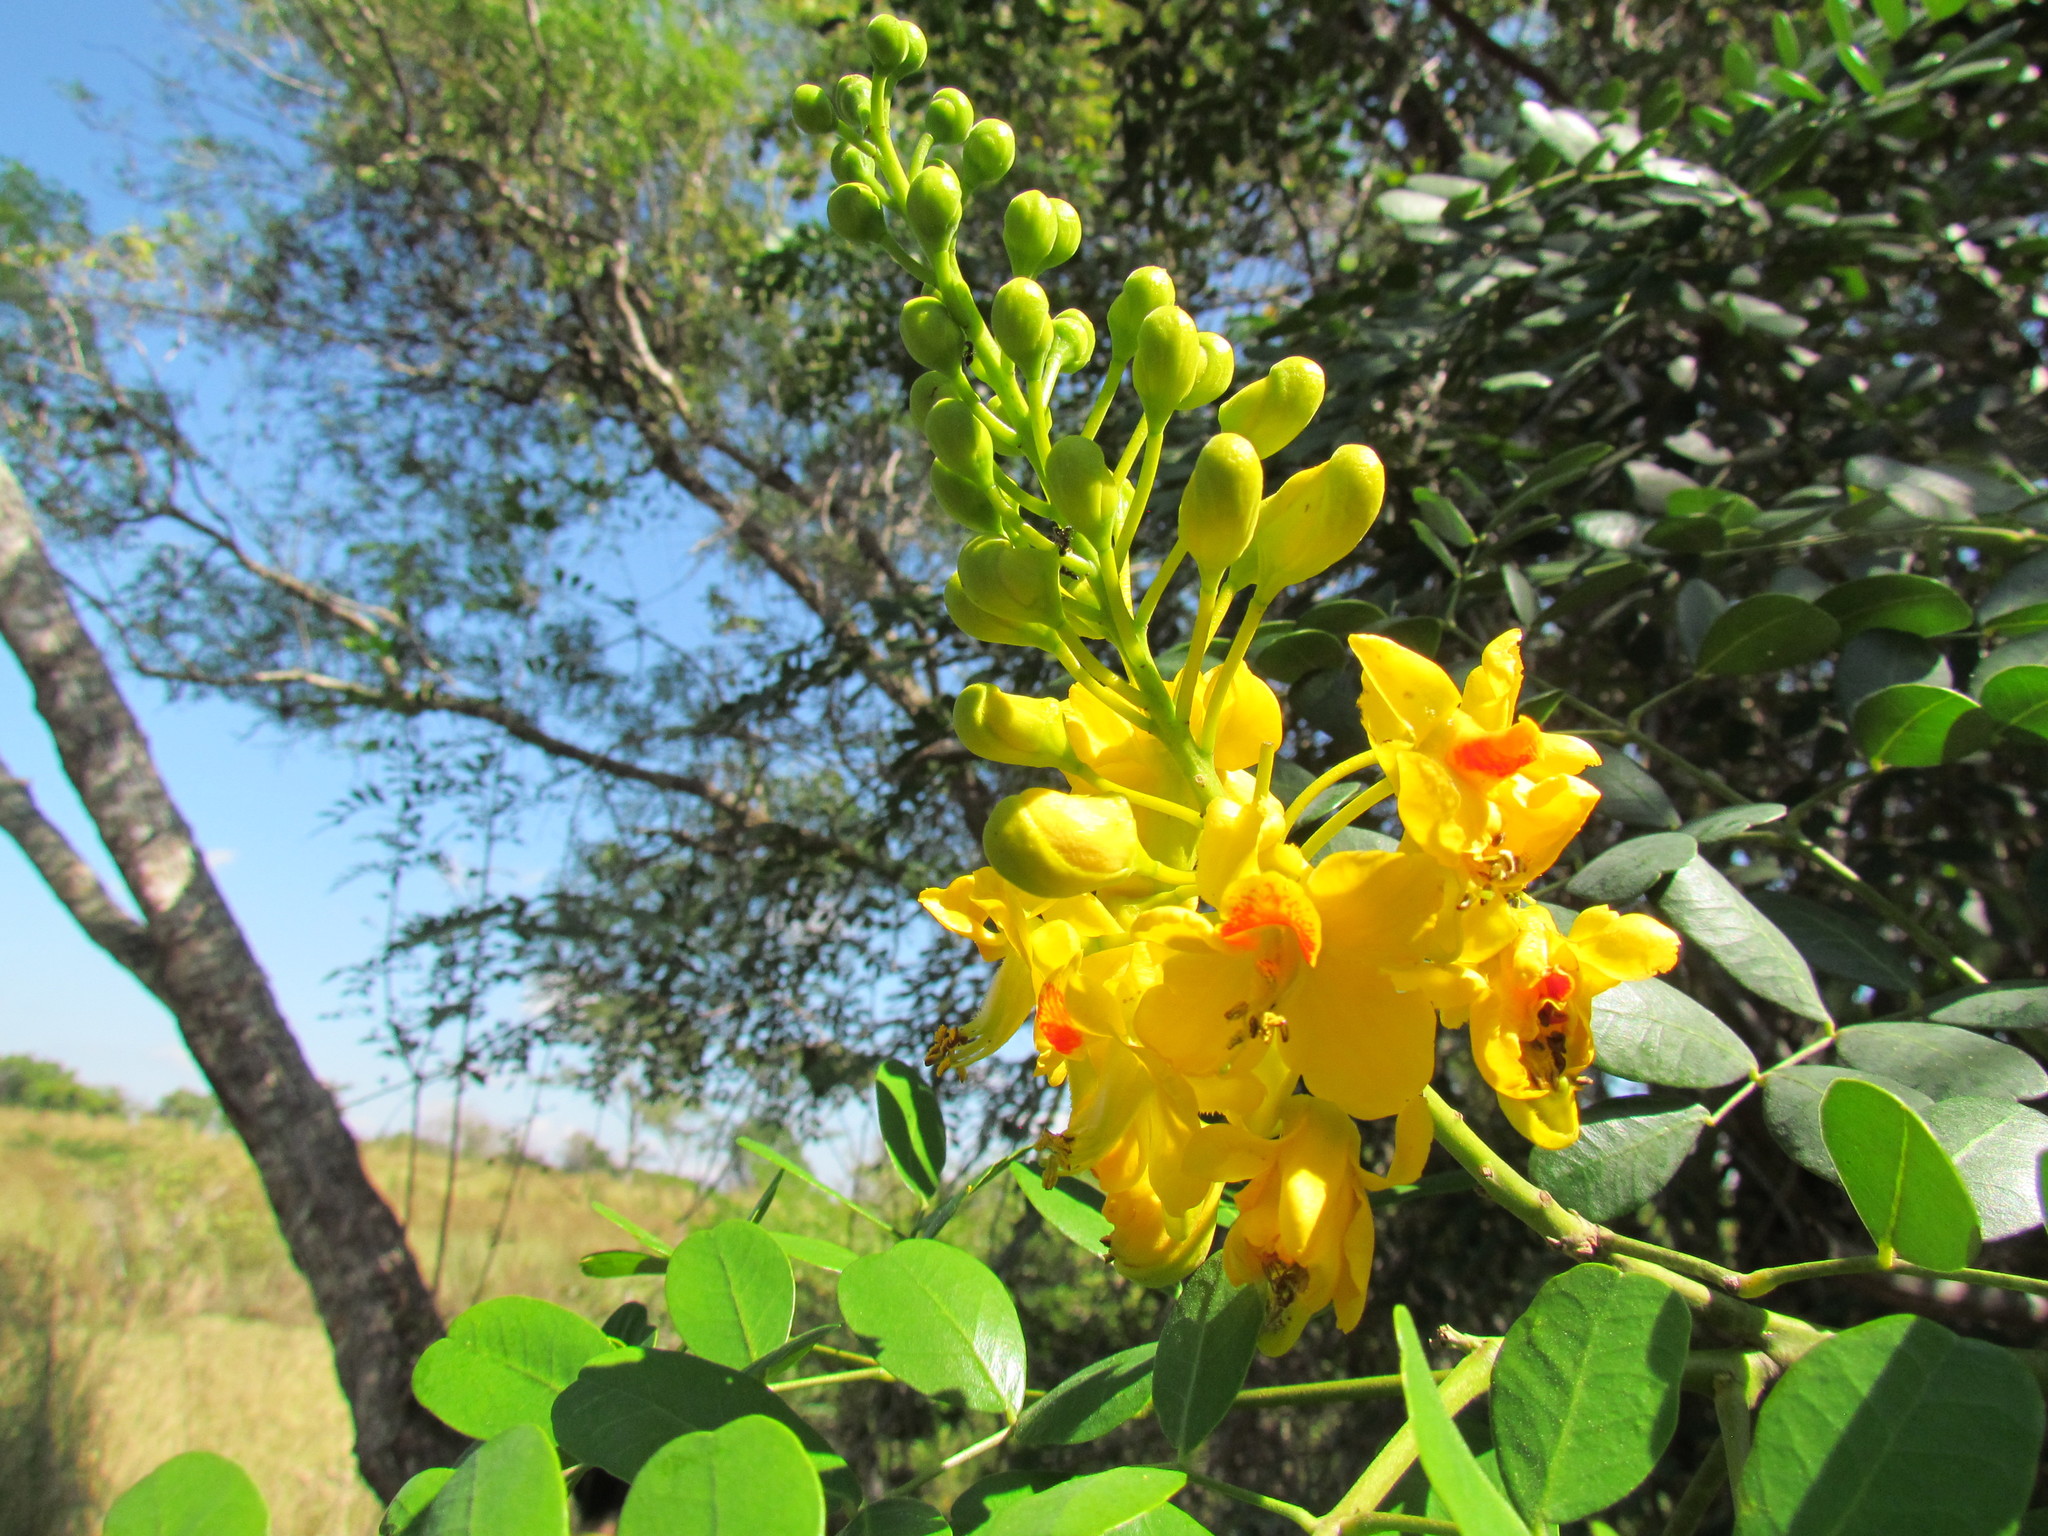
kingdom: Plantae
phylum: Tracheophyta
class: Magnoliopsida
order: Fabales
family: Fabaceae
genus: Tara
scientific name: Tara cacalaco
